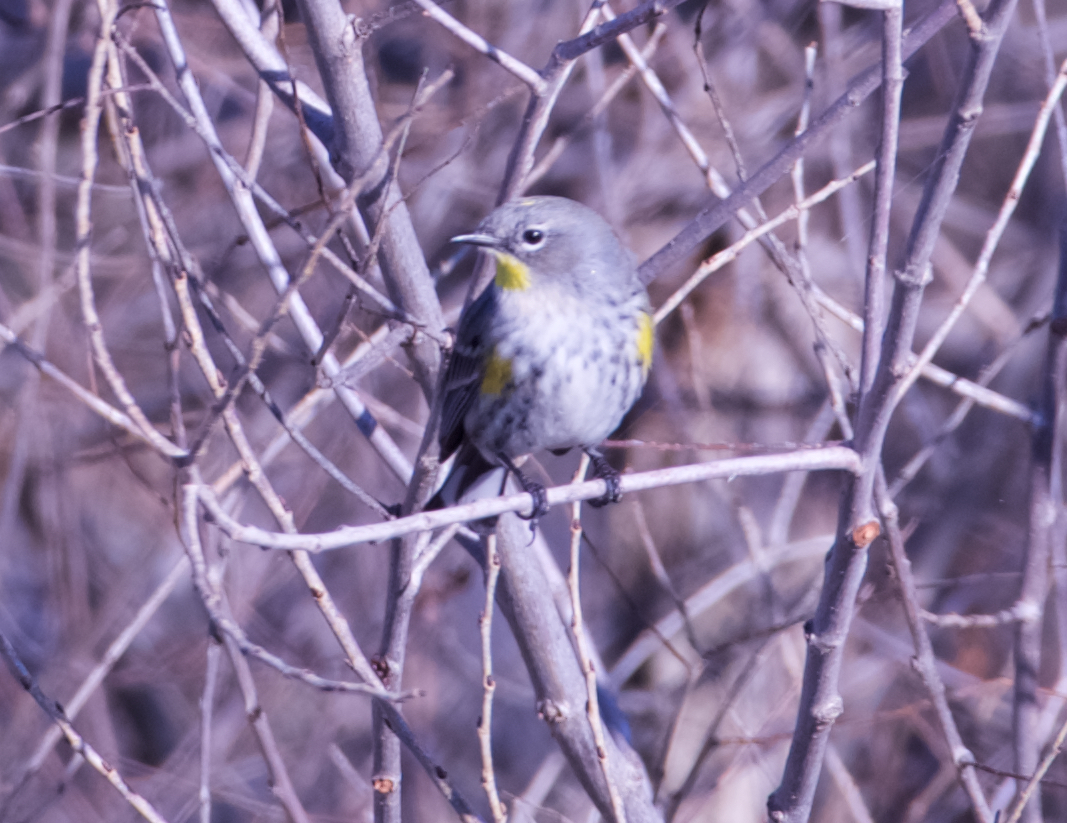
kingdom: Animalia
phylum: Chordata
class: Aves
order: Passeriformes
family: Parulidae
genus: Setophaga
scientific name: Setophaga coronata
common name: Myrtle warbler
